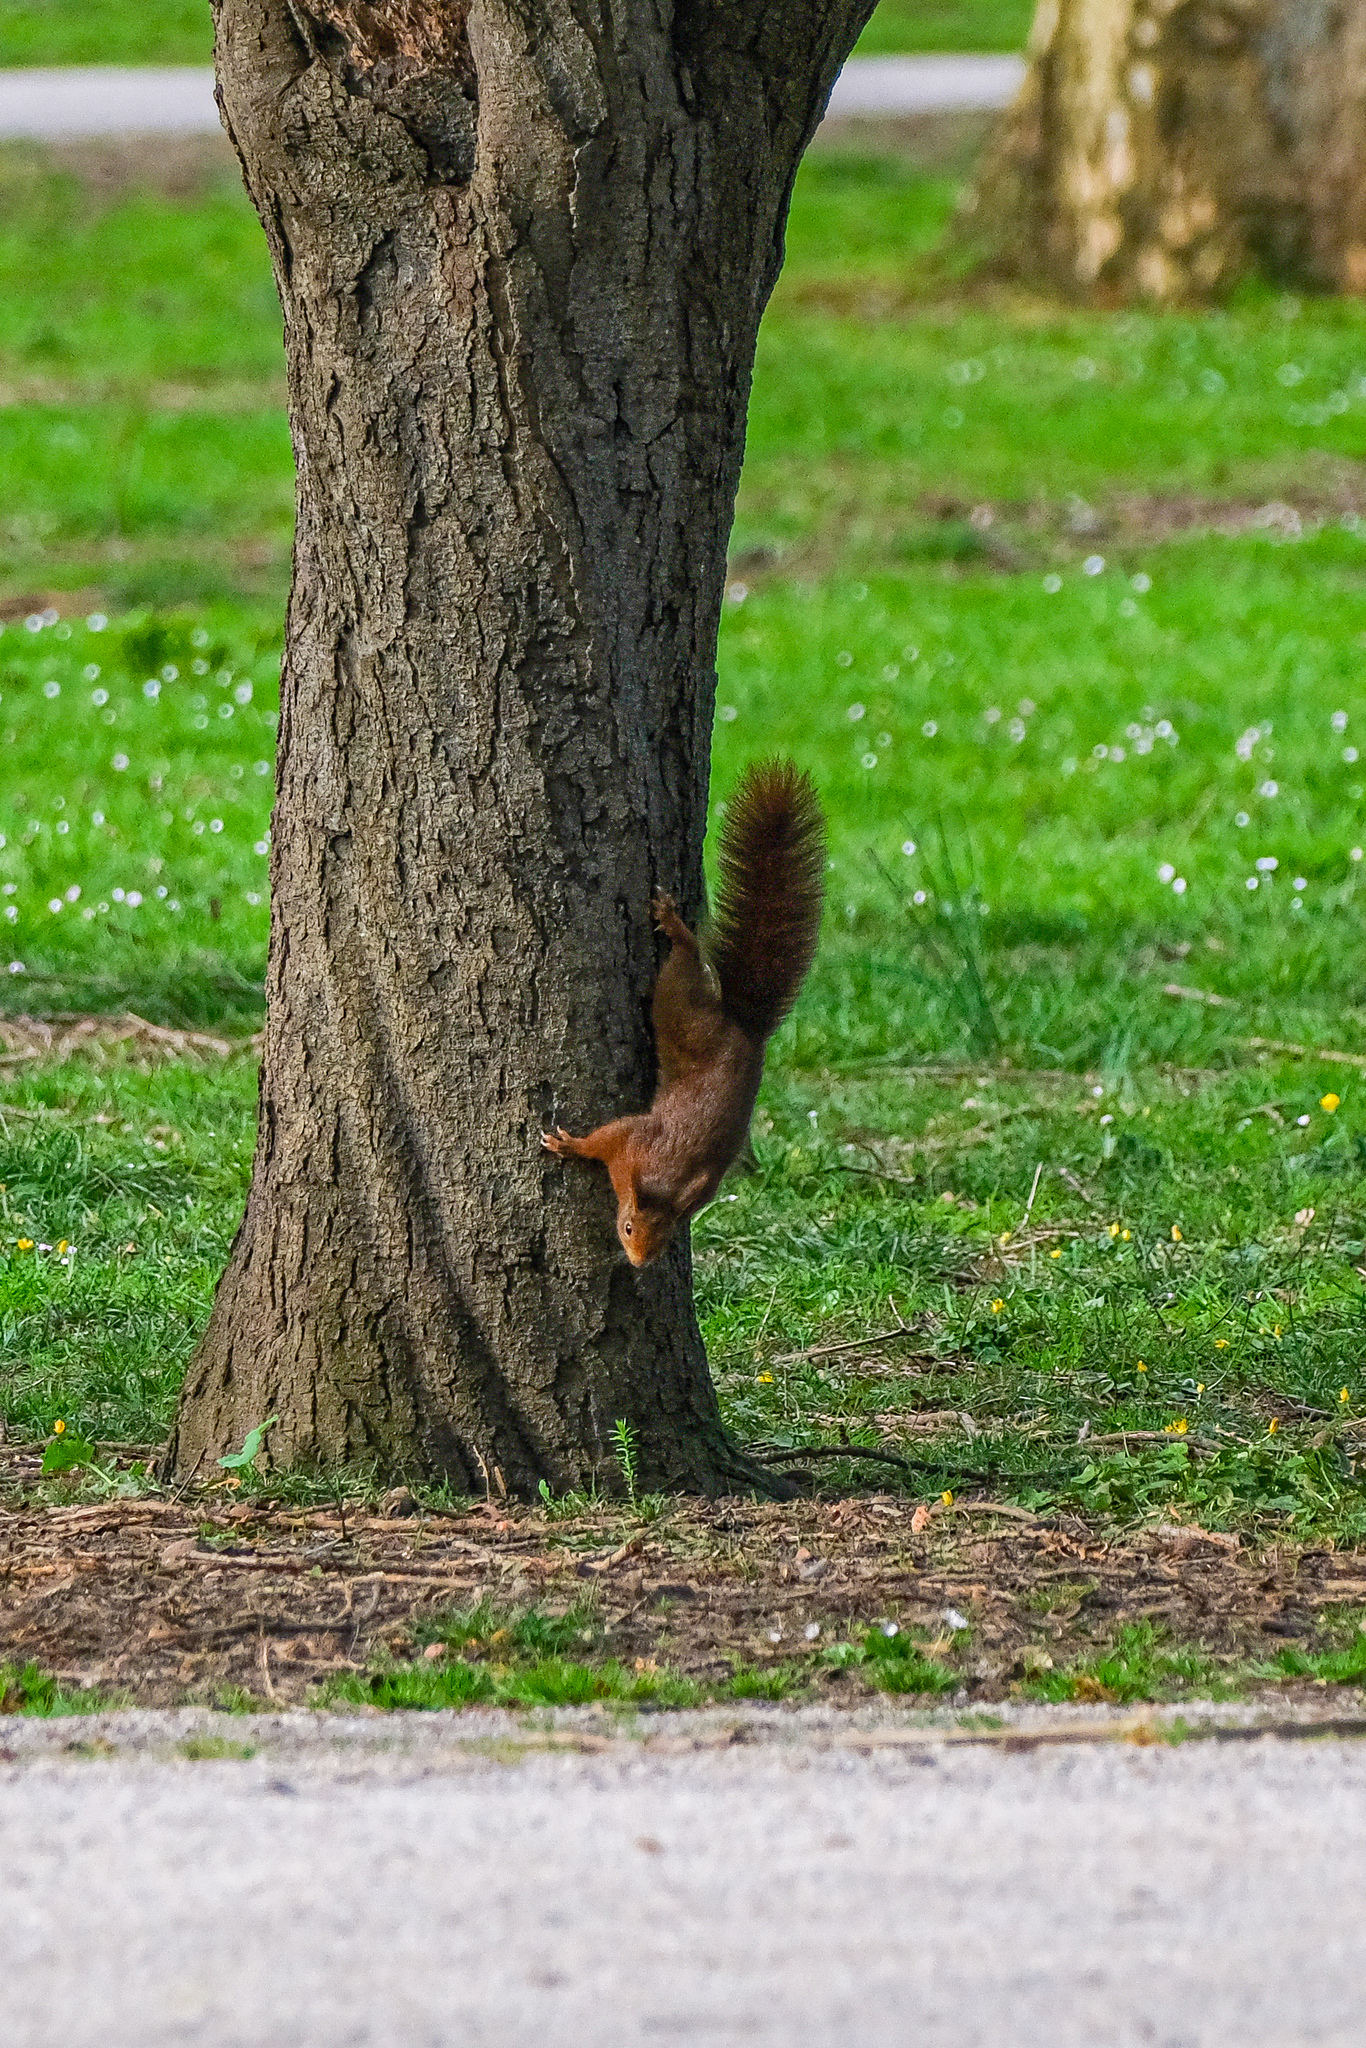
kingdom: Animalia
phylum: Chordata
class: Mammalia
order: Rodentia
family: Sciuridae
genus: Sciurus
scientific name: Sciurus vulgaris
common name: Eurasian red squirrel
